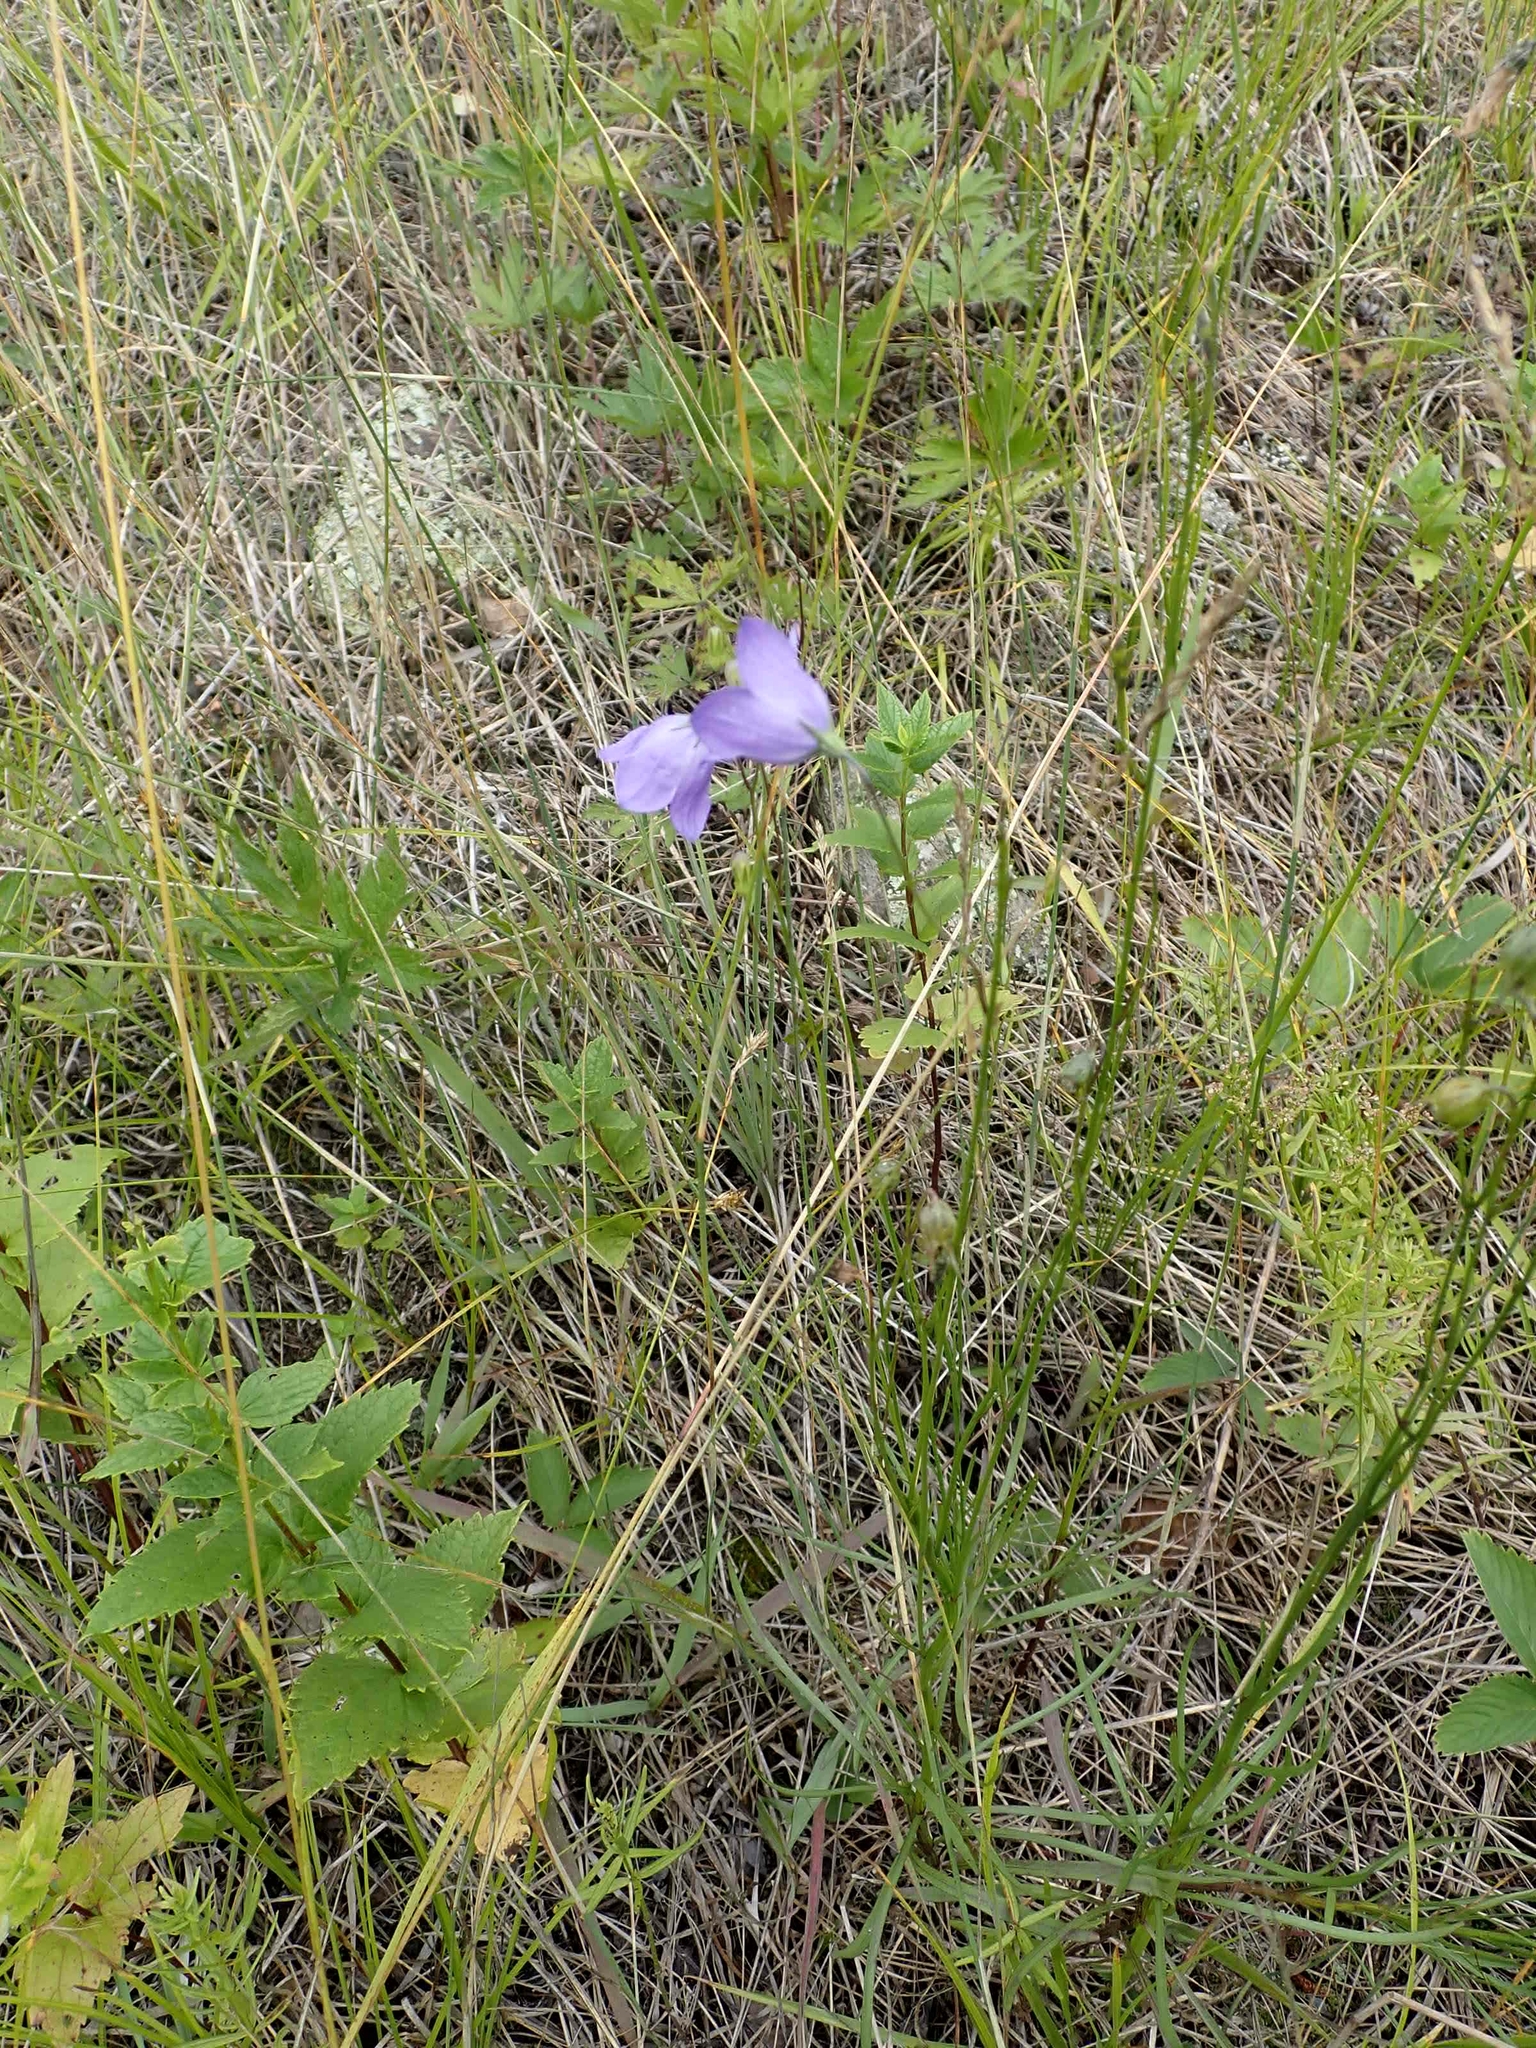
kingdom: Plantae
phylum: Tracheophyta
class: Magnoliopsida
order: Asterales
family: Campanulaceae
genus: Campanula
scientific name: Campanula petiolata
